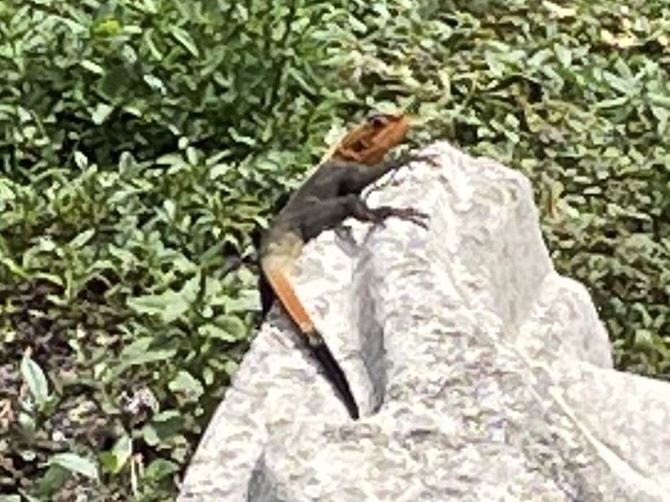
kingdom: Animalia
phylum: Chordata
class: Squamata
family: Agamidae
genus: Agama
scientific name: Agama picticauda
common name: Red-headed agama
